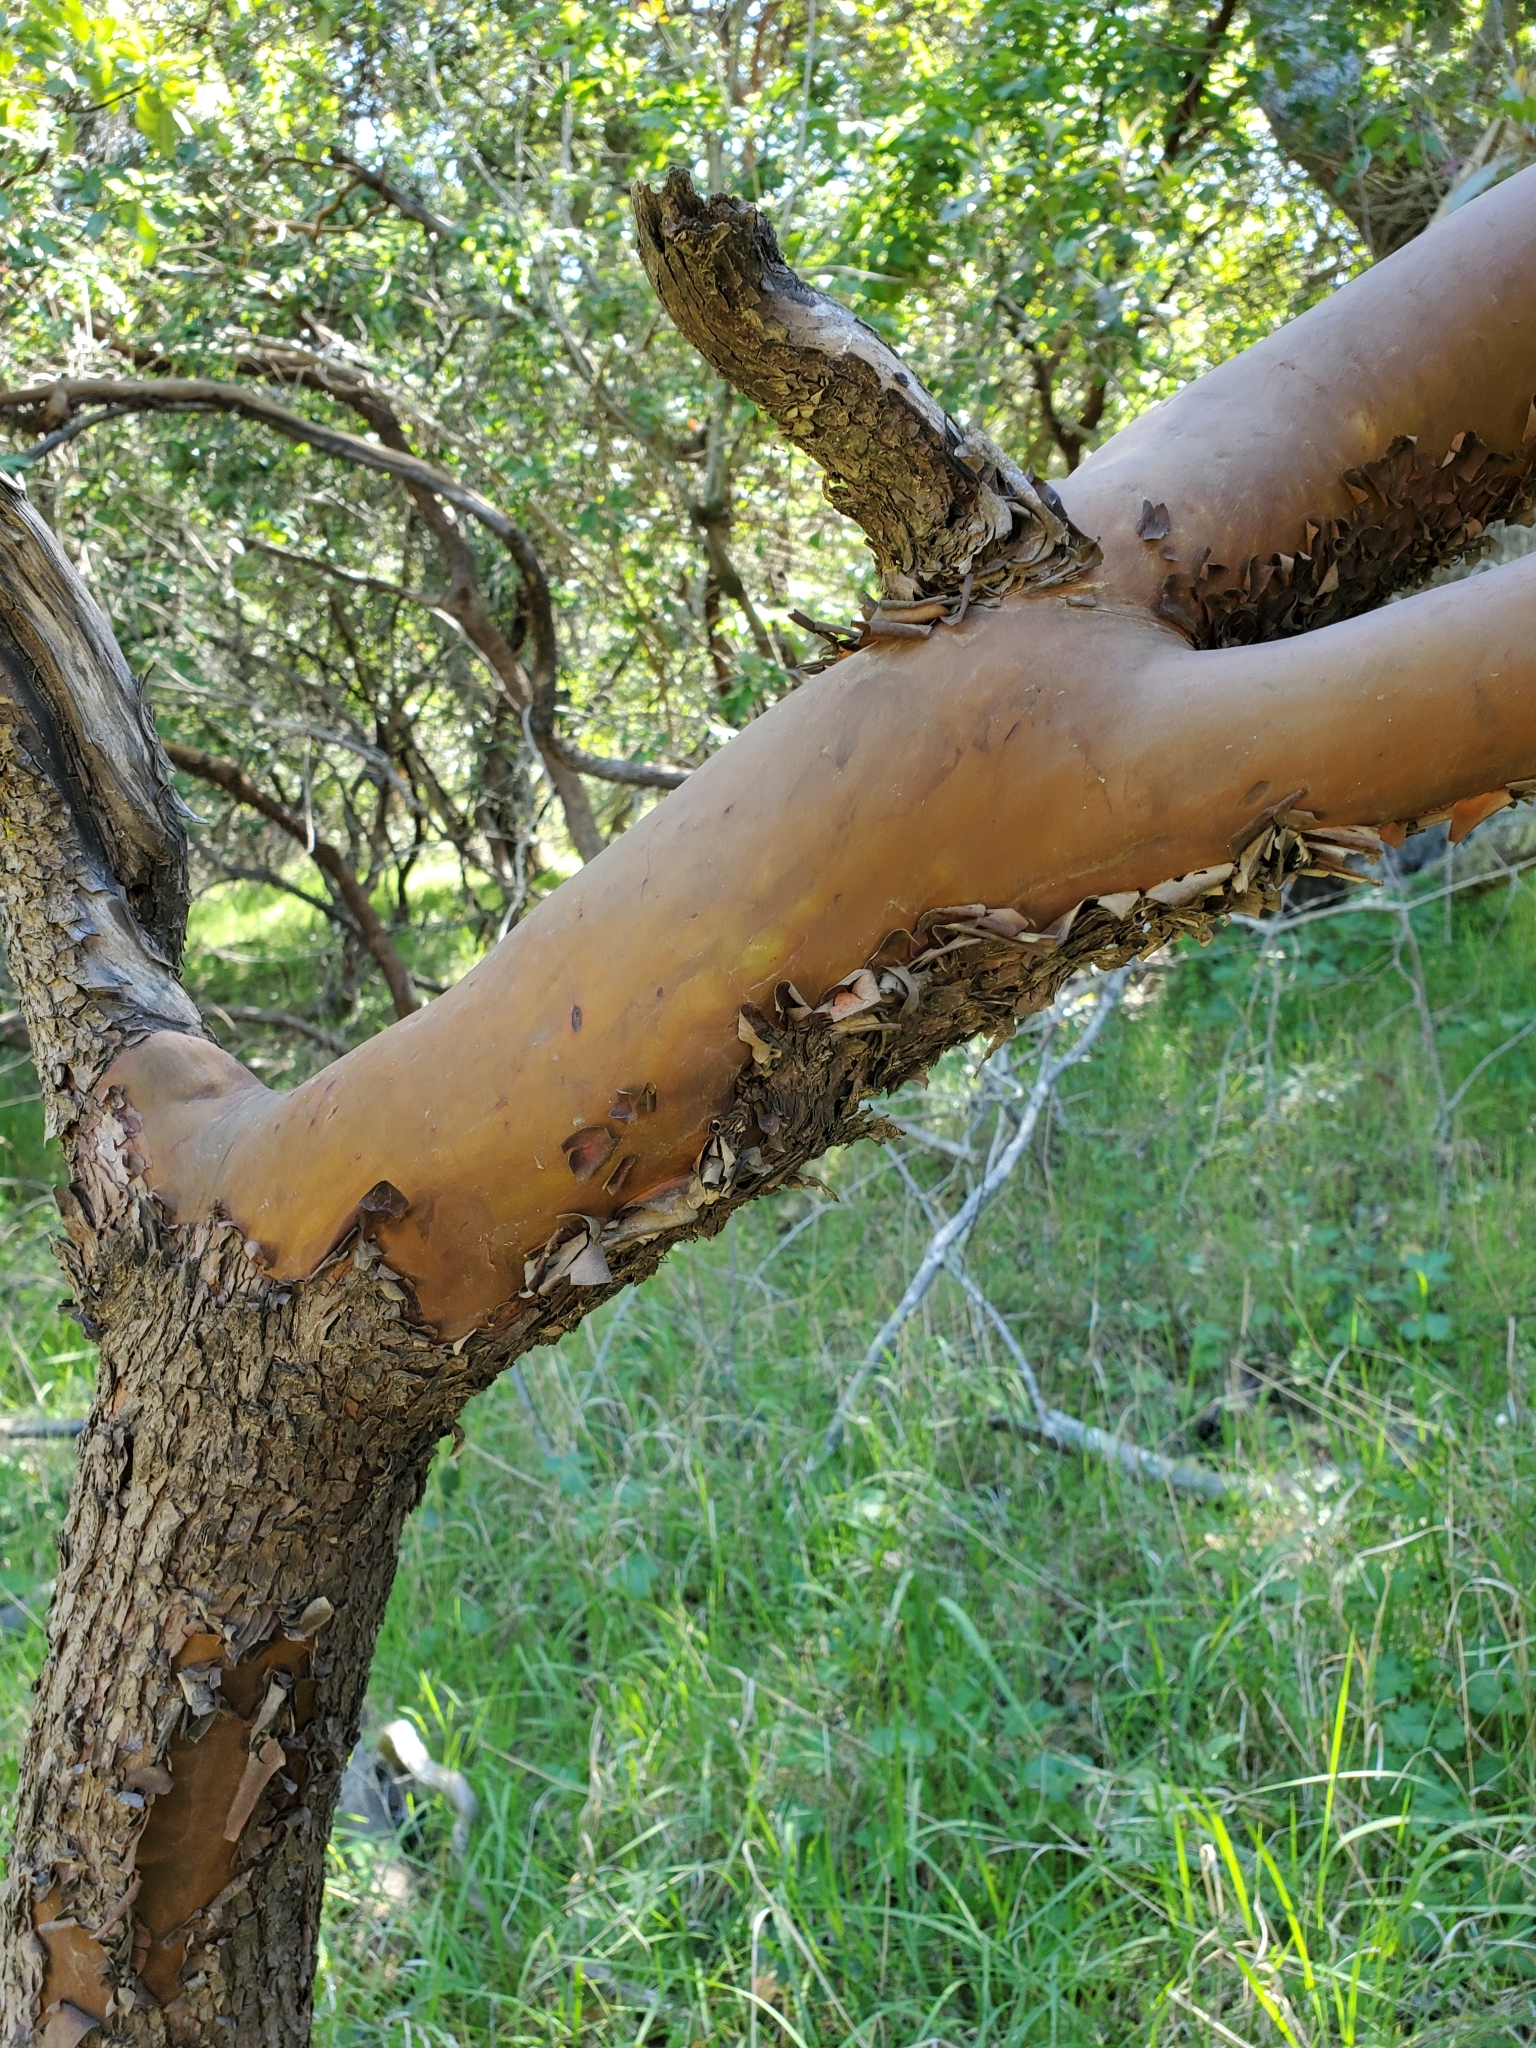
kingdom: Plantae
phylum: Tracheophyta
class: Magnoliopsida
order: Ericales
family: Ericaceae
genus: Arbutus
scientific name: Arbutus menziesii
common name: Pacific madrone
